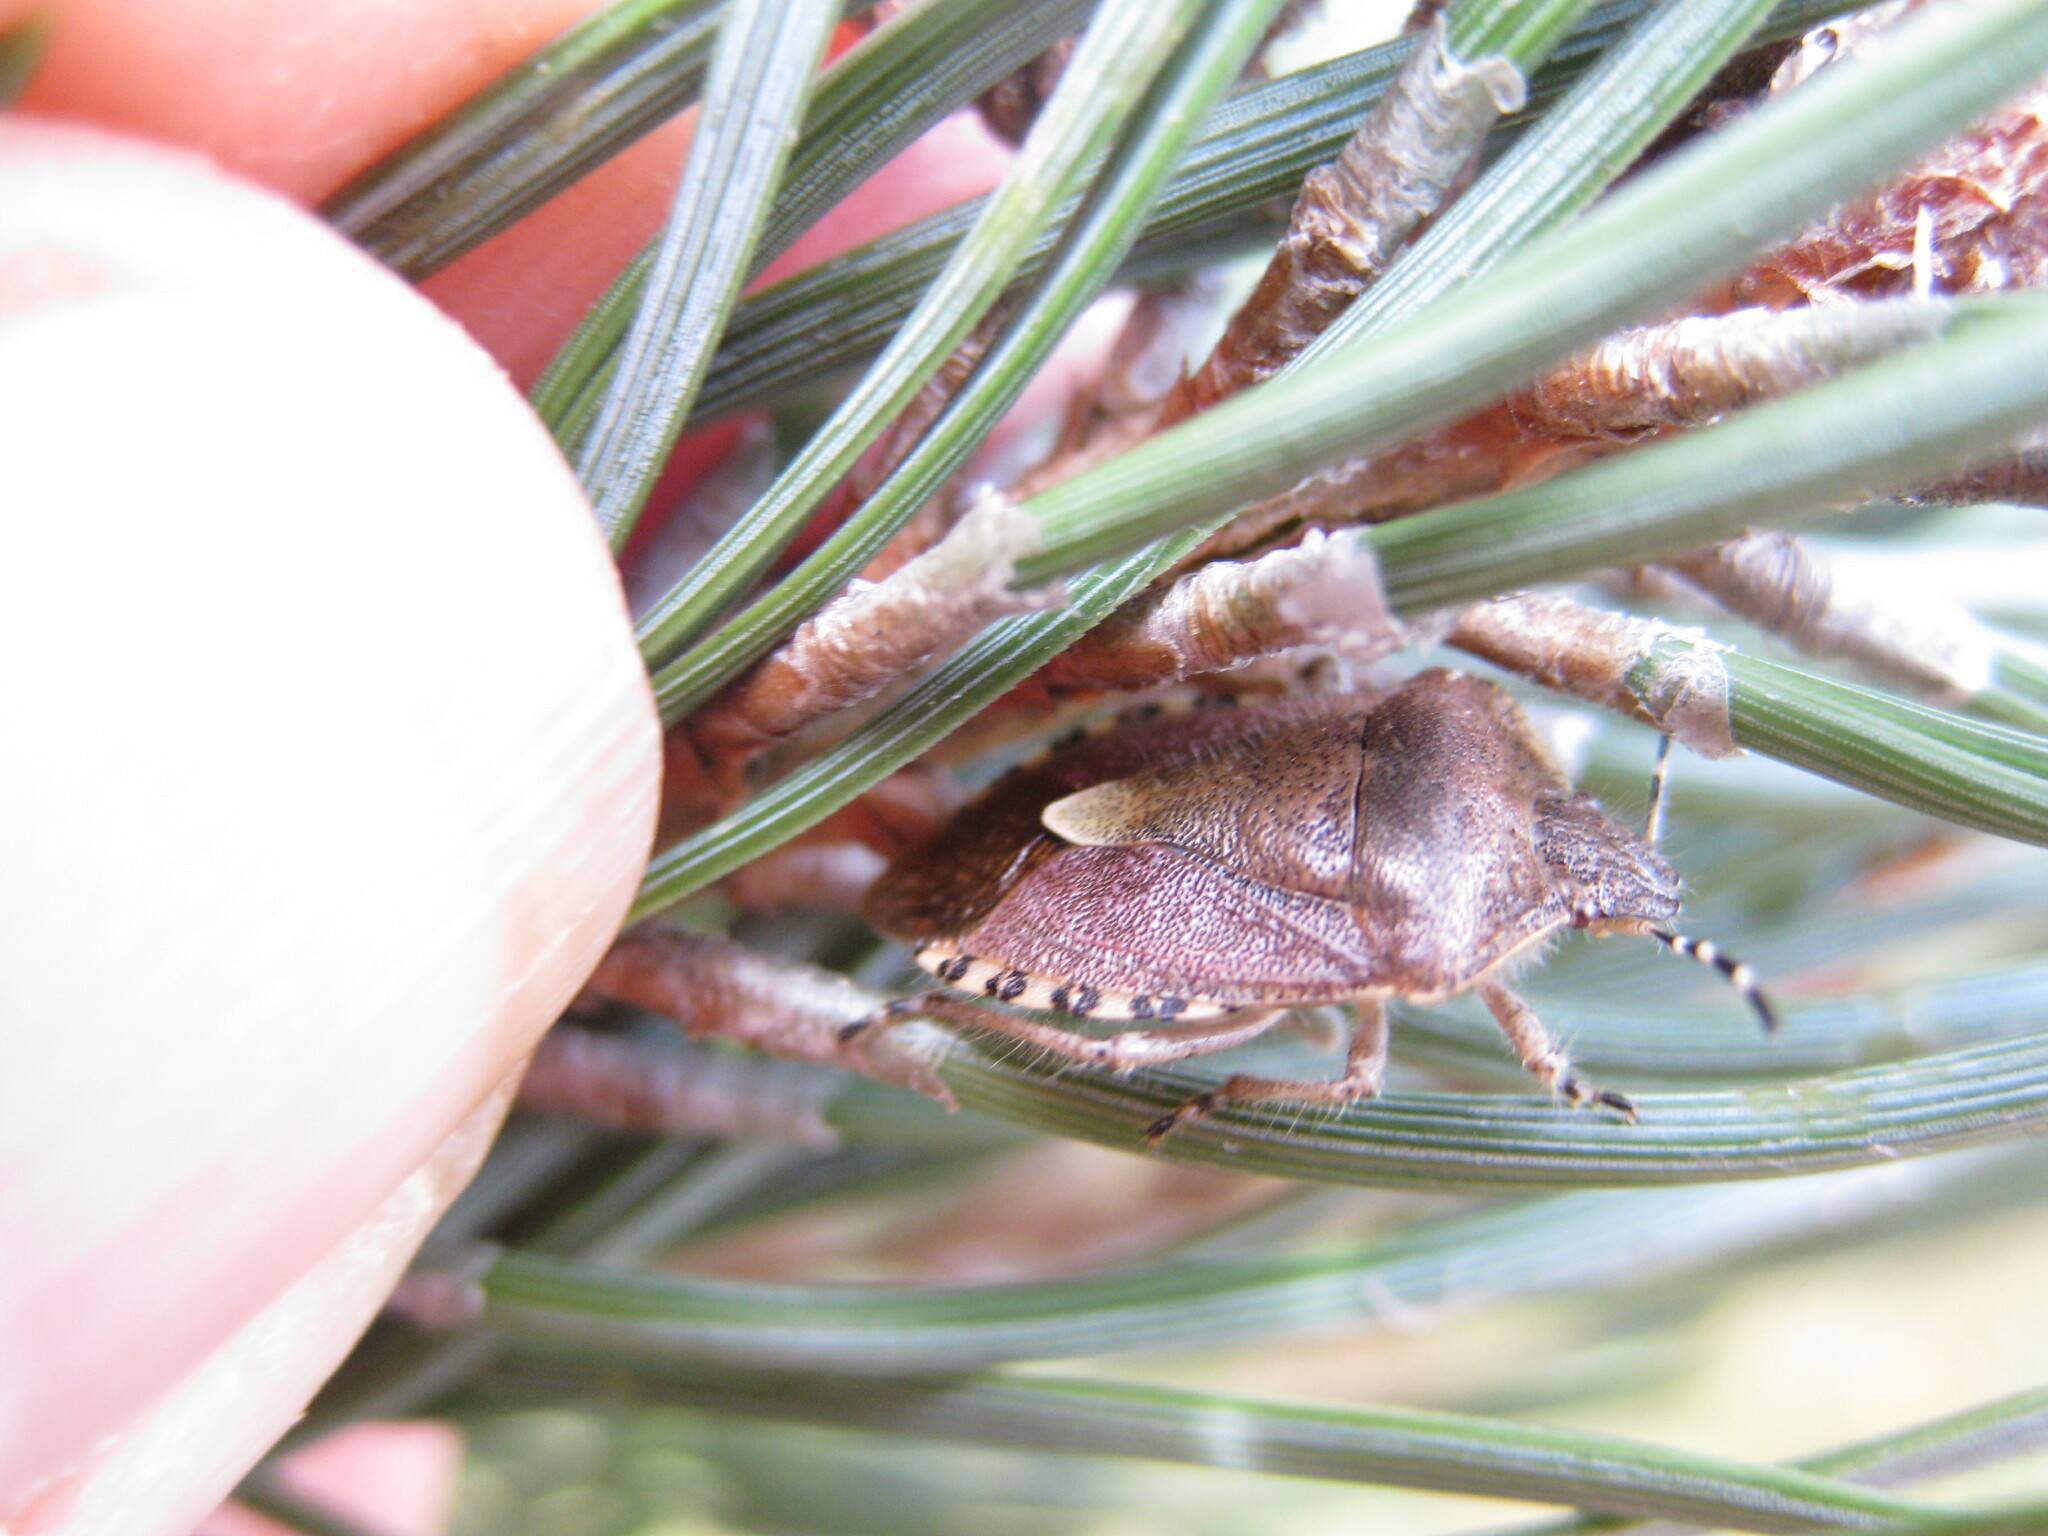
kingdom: Animalia
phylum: Arthropoda
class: Insecta
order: Hemiptera
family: Pentatomidae
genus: Dolycoris
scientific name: Dolycoris baccarum
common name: Sloe bug
